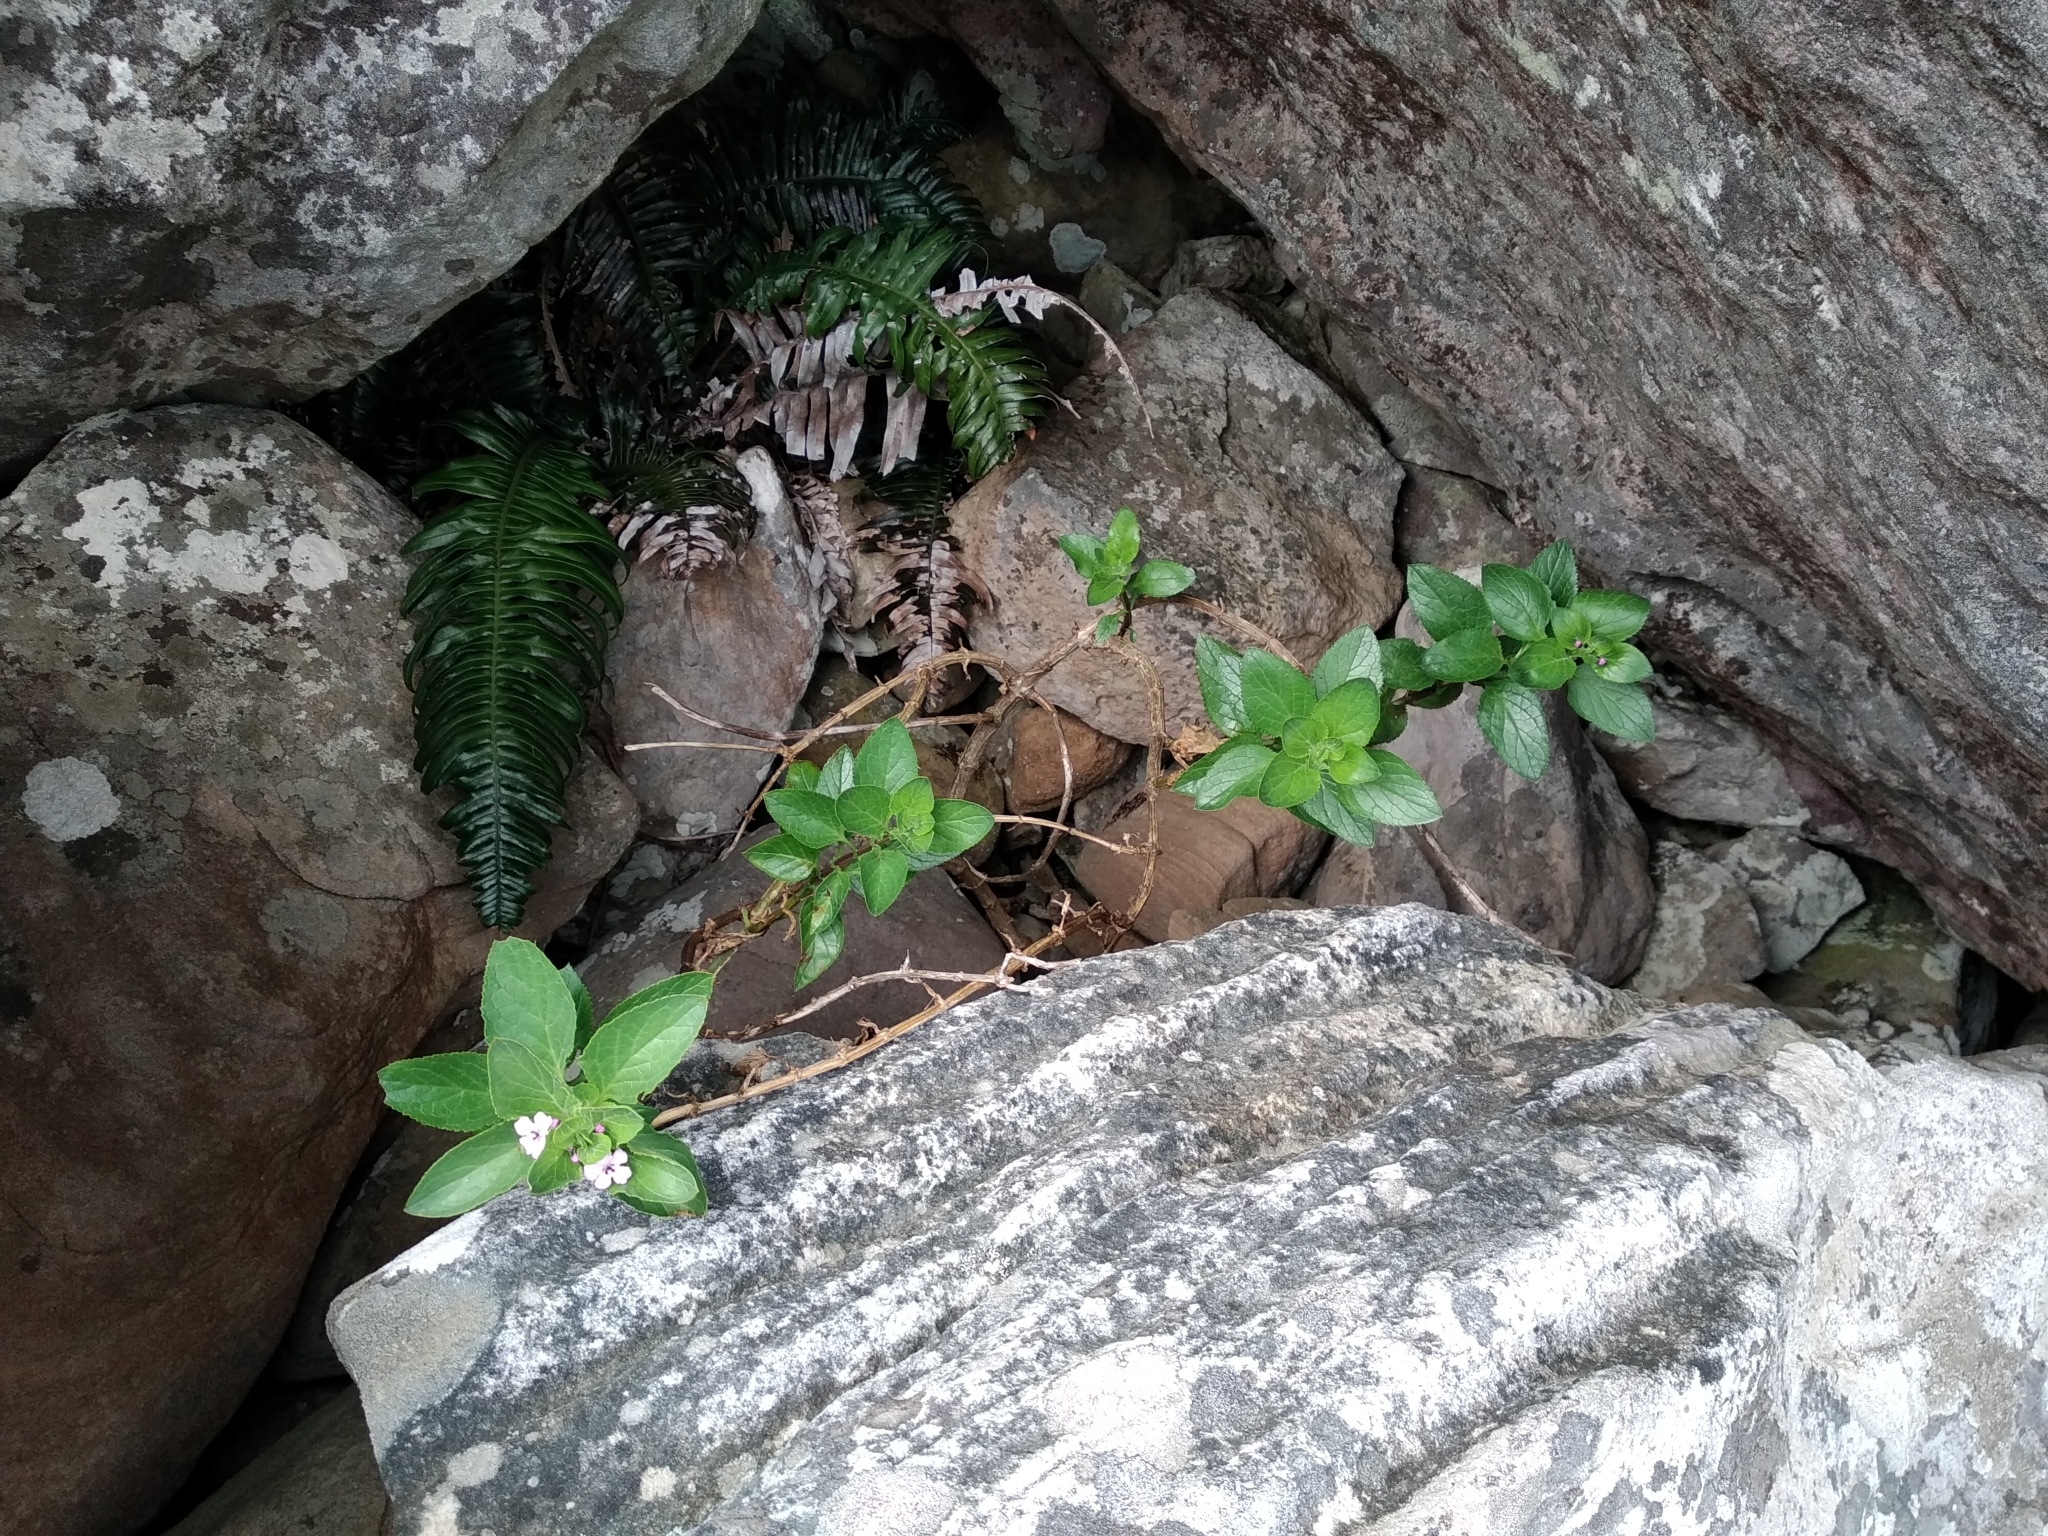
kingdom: Plantae
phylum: Tracheophyta
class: Magnoliopsida
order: Lamiales
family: Scrophulariaceae
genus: Teedia
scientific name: Teedia lucida
